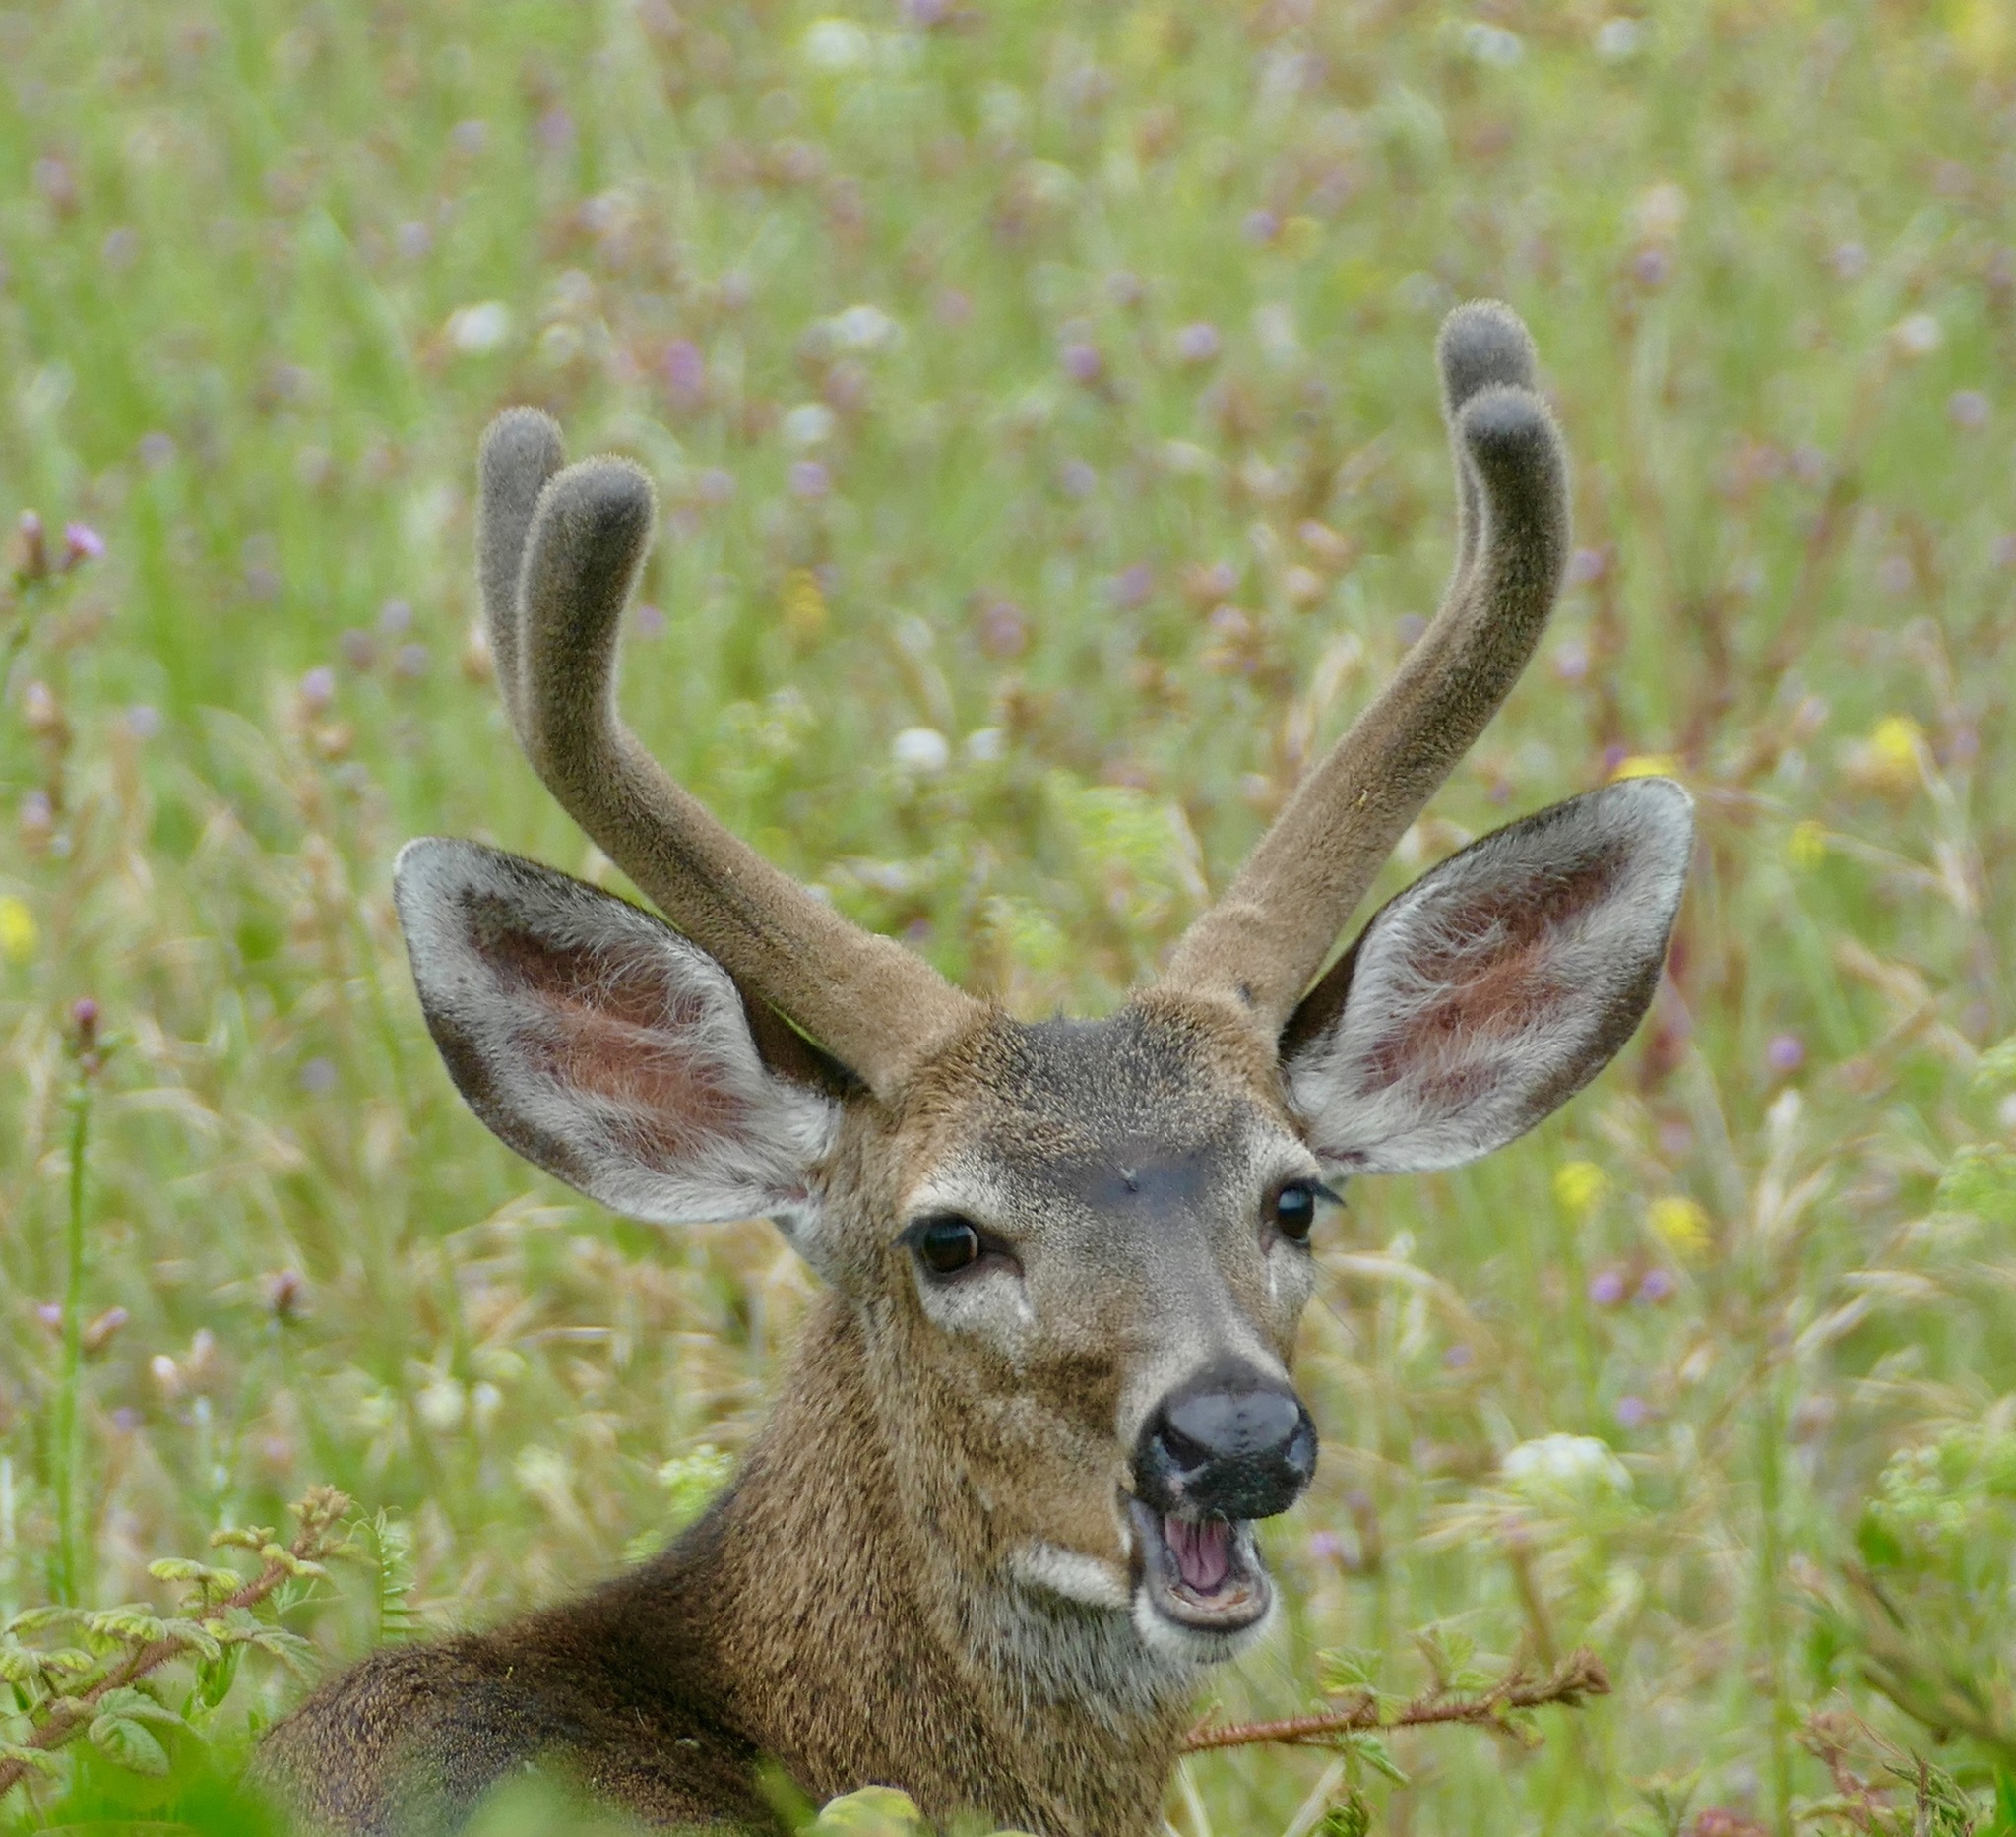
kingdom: Animalia
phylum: Chordata
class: Mammalia
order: Artiodactyla
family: Cervidae
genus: Odocoileus
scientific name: Odocoileus hemionus
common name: Mule deer
